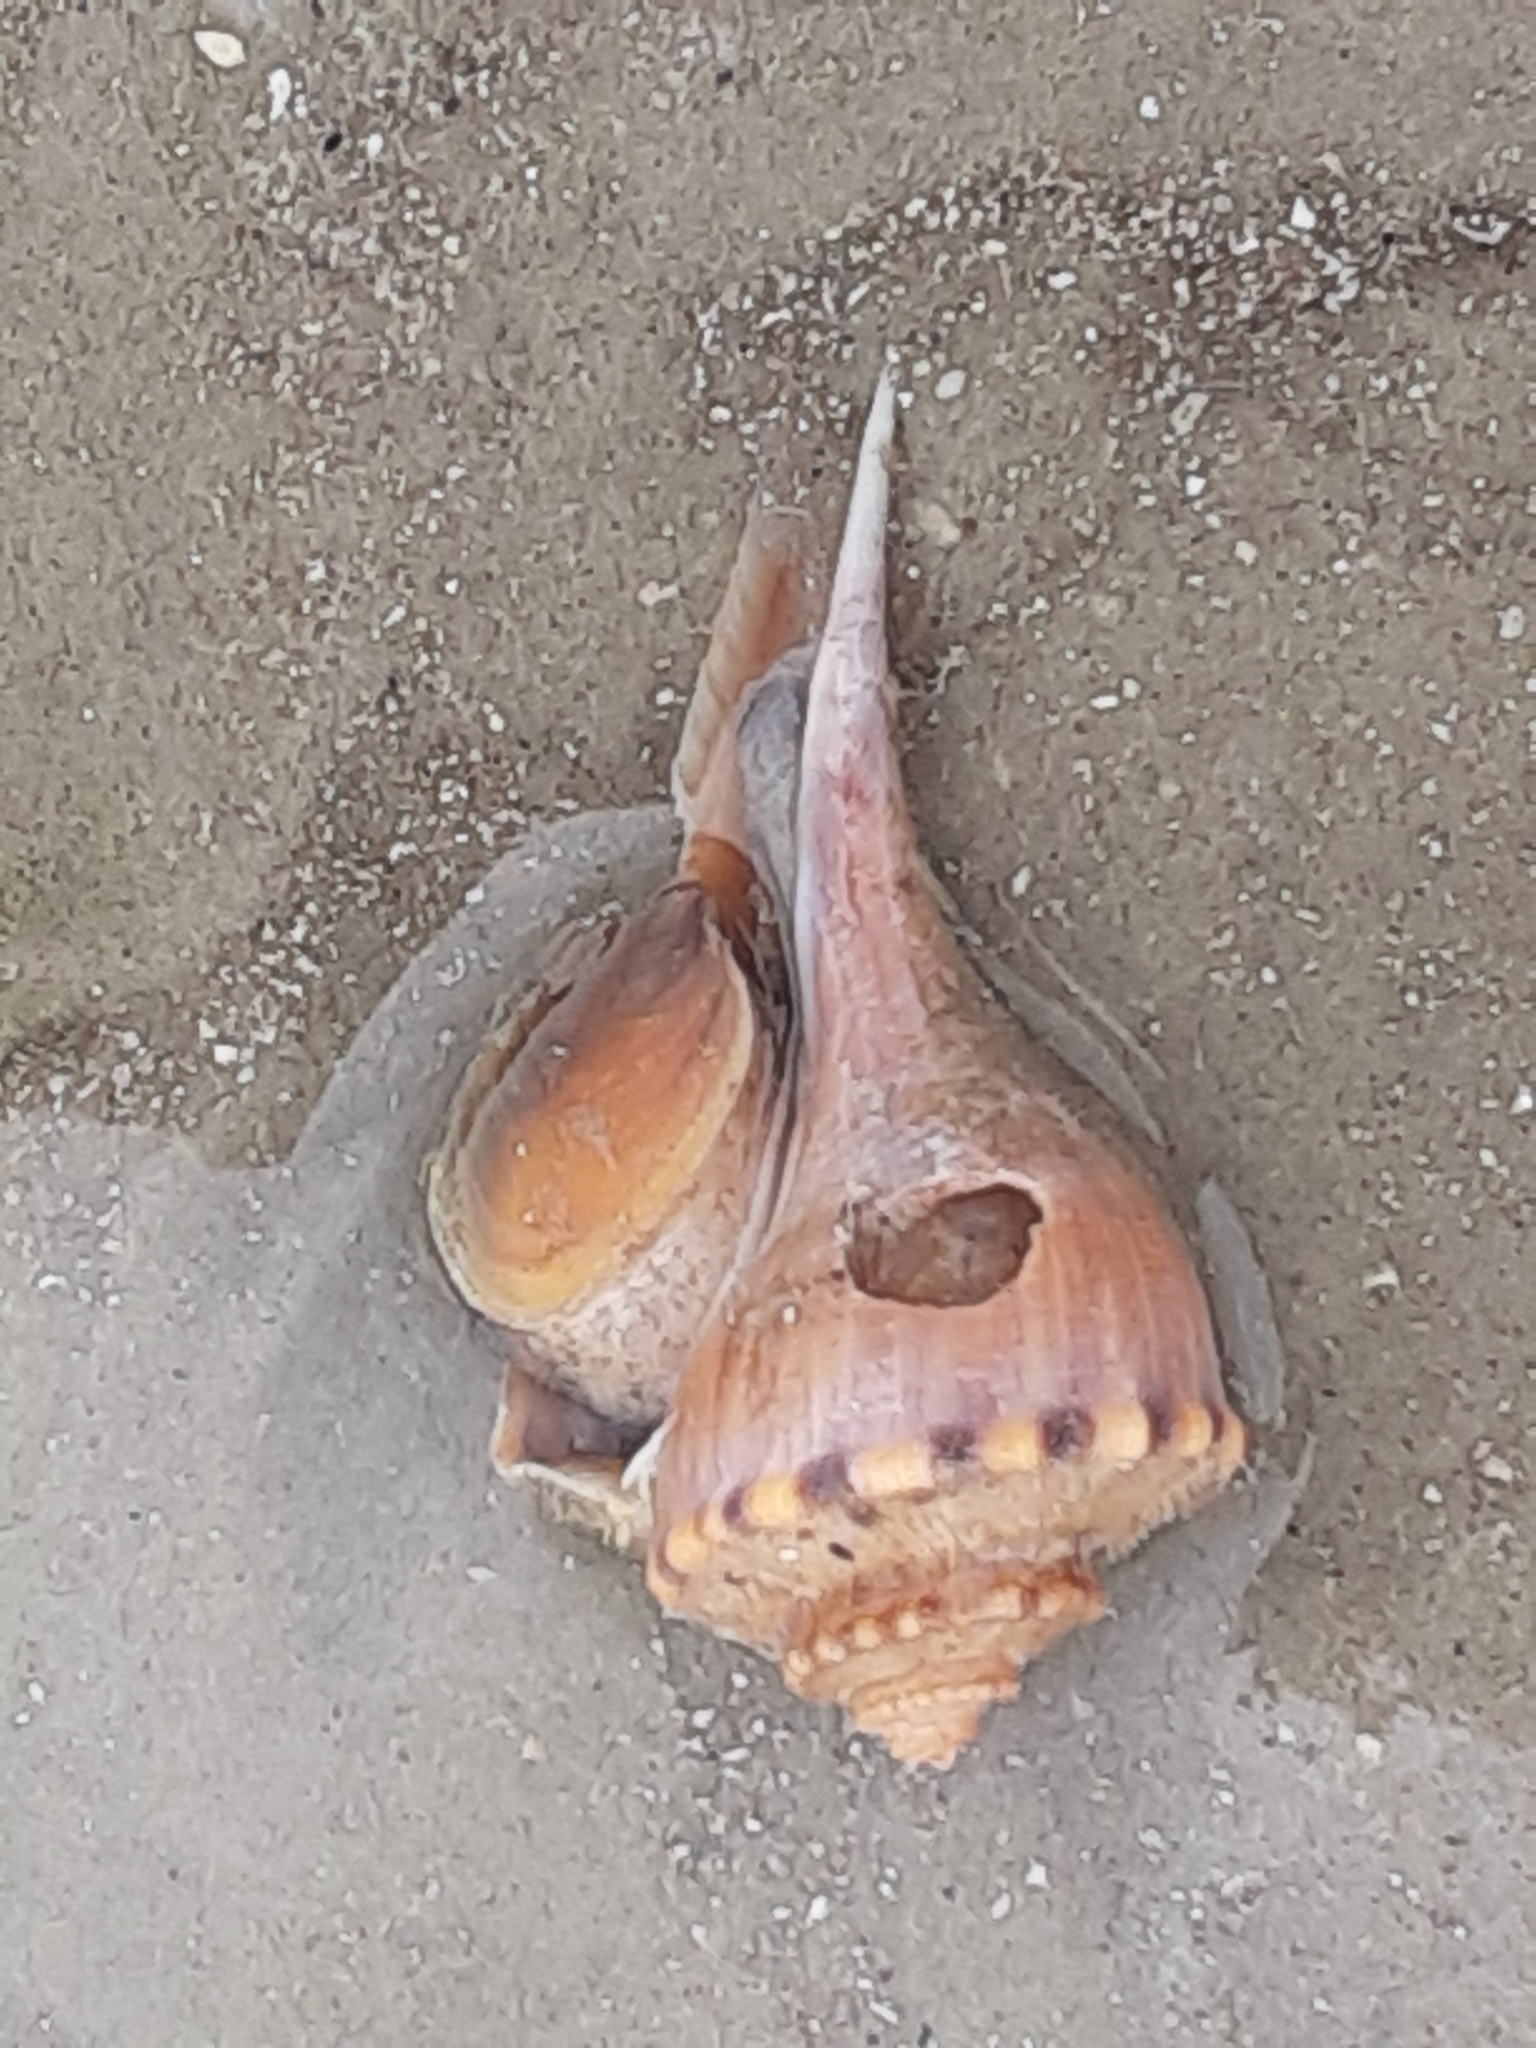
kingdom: Animalia
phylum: Mollusca
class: Gastropoda
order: Neogastropoda
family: Busyconidae
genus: Busycotypus
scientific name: Busycotypus canaliculatus
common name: Channeled whelk
